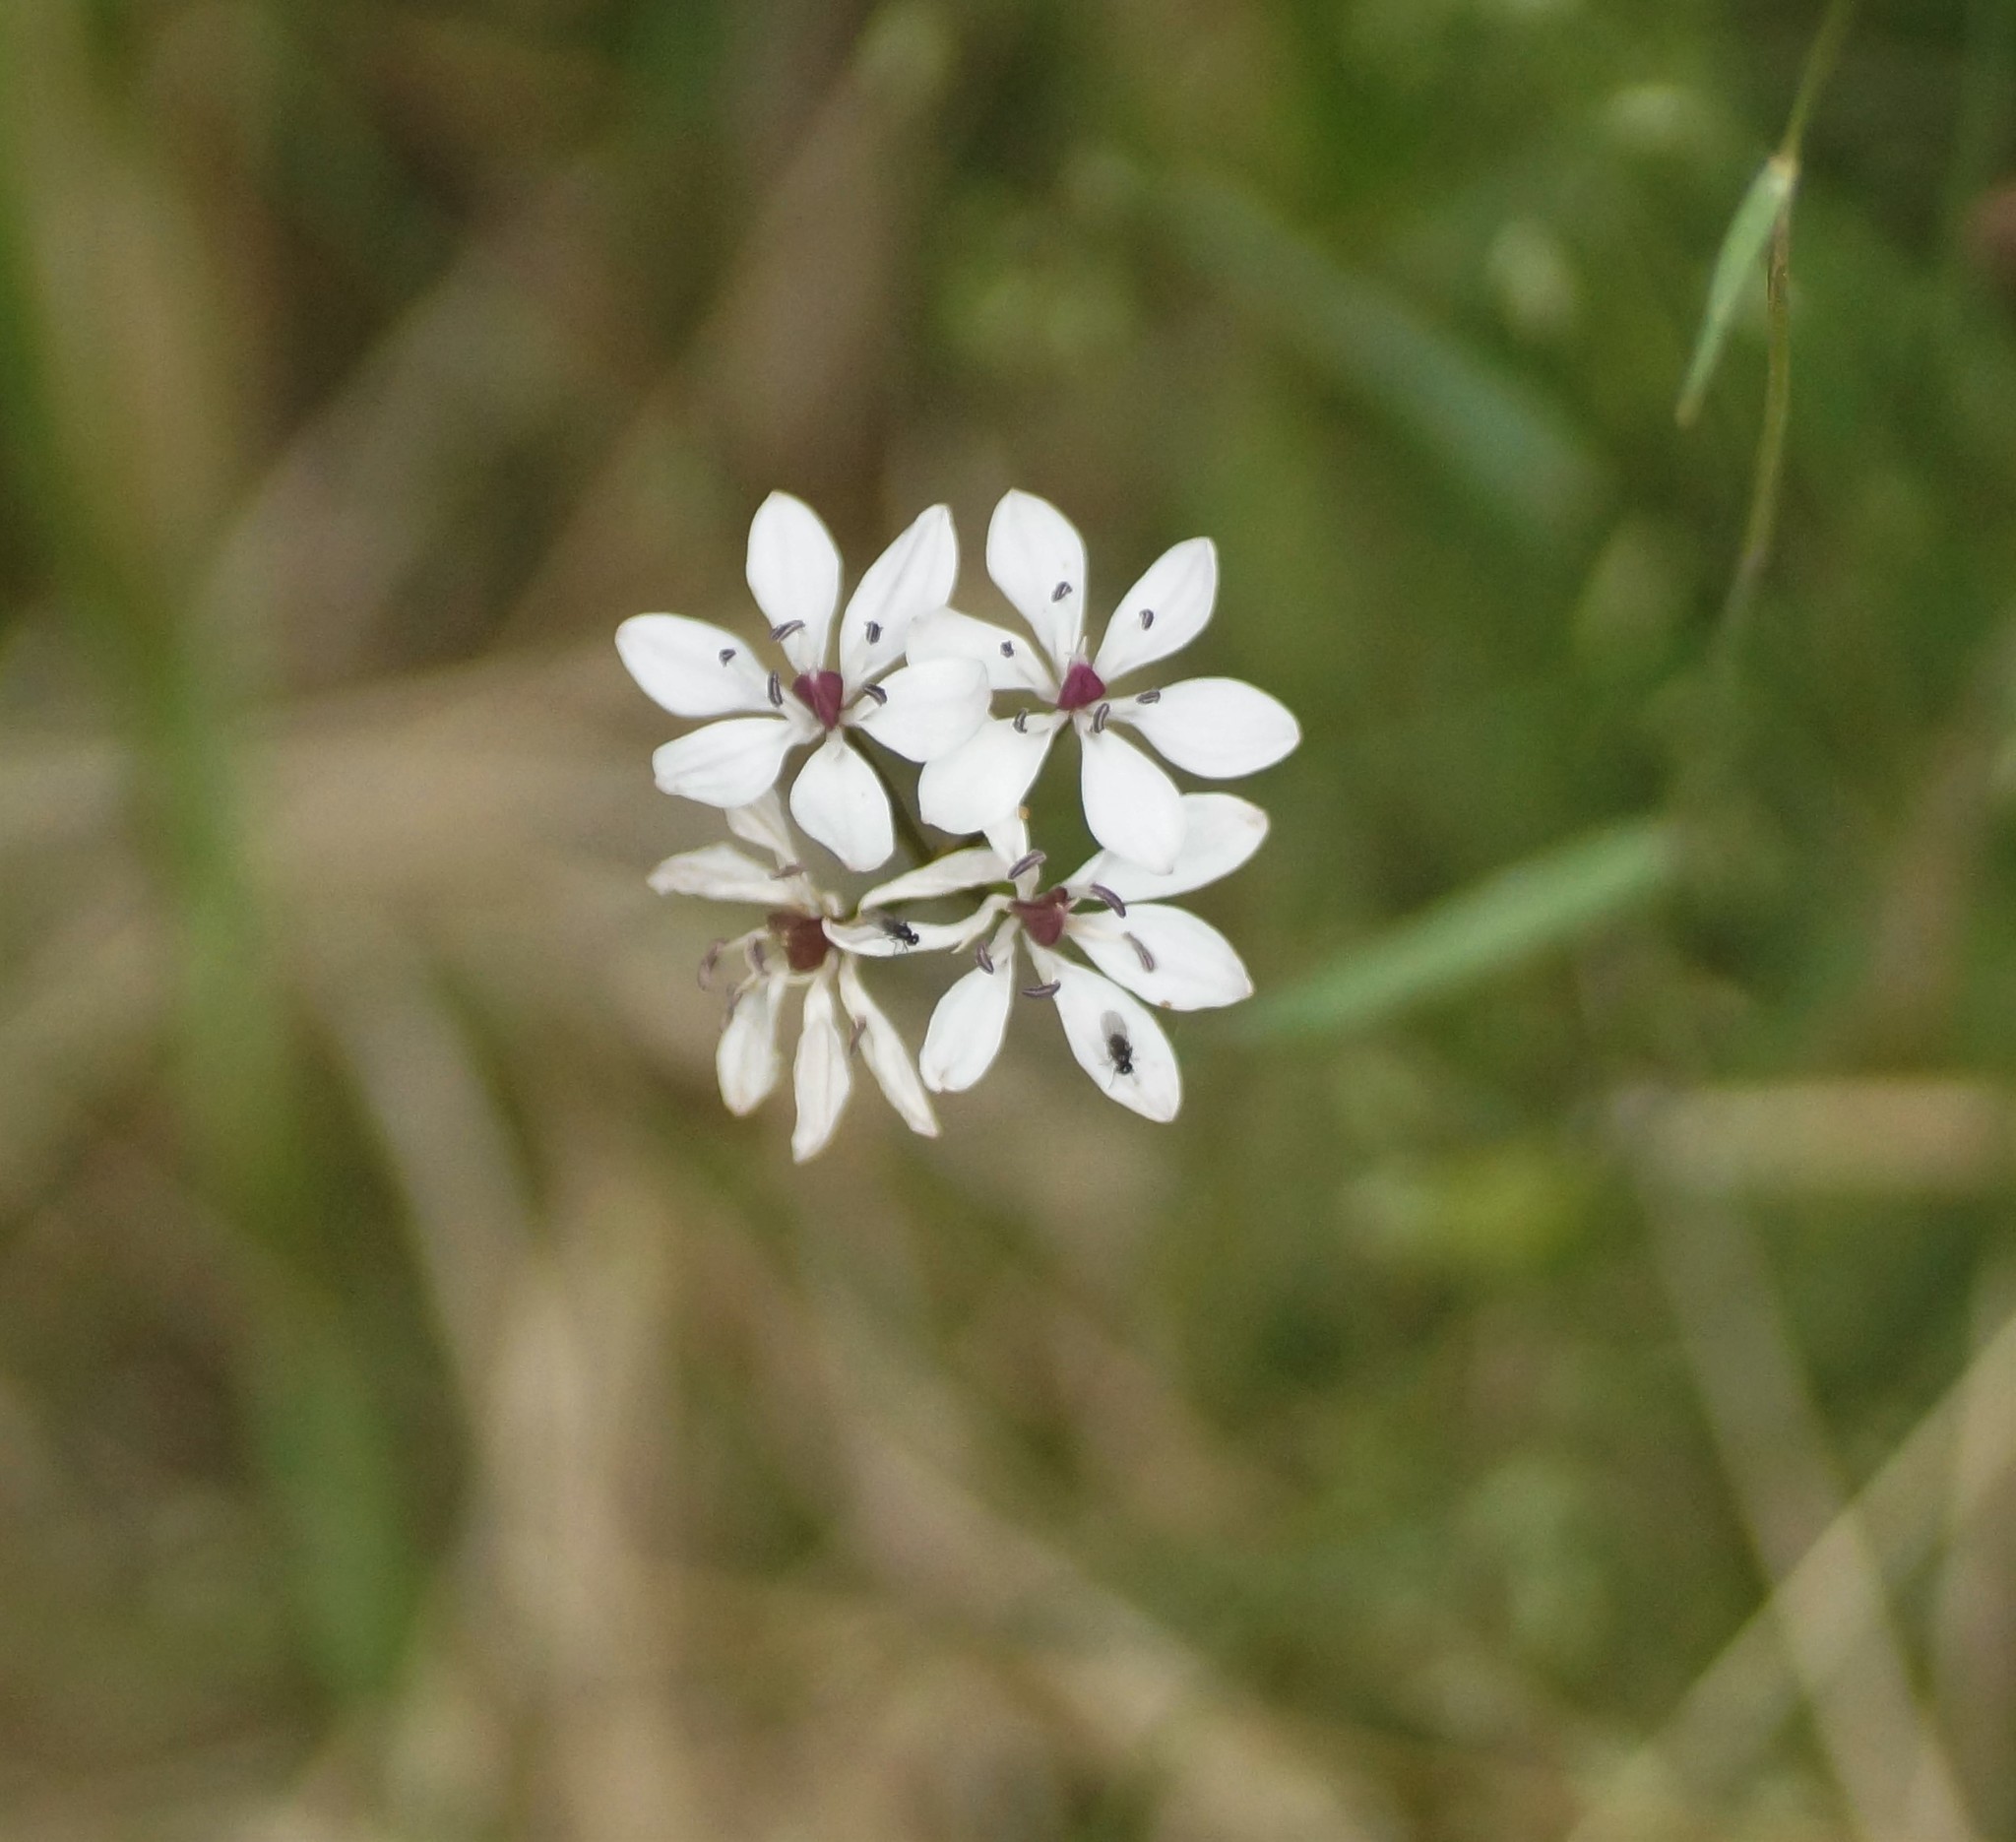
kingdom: Plantae
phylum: Tracheophyta
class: Liliopsida
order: Liliales
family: Colchicaceae
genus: Burchardia
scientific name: Burchardia umbellata
